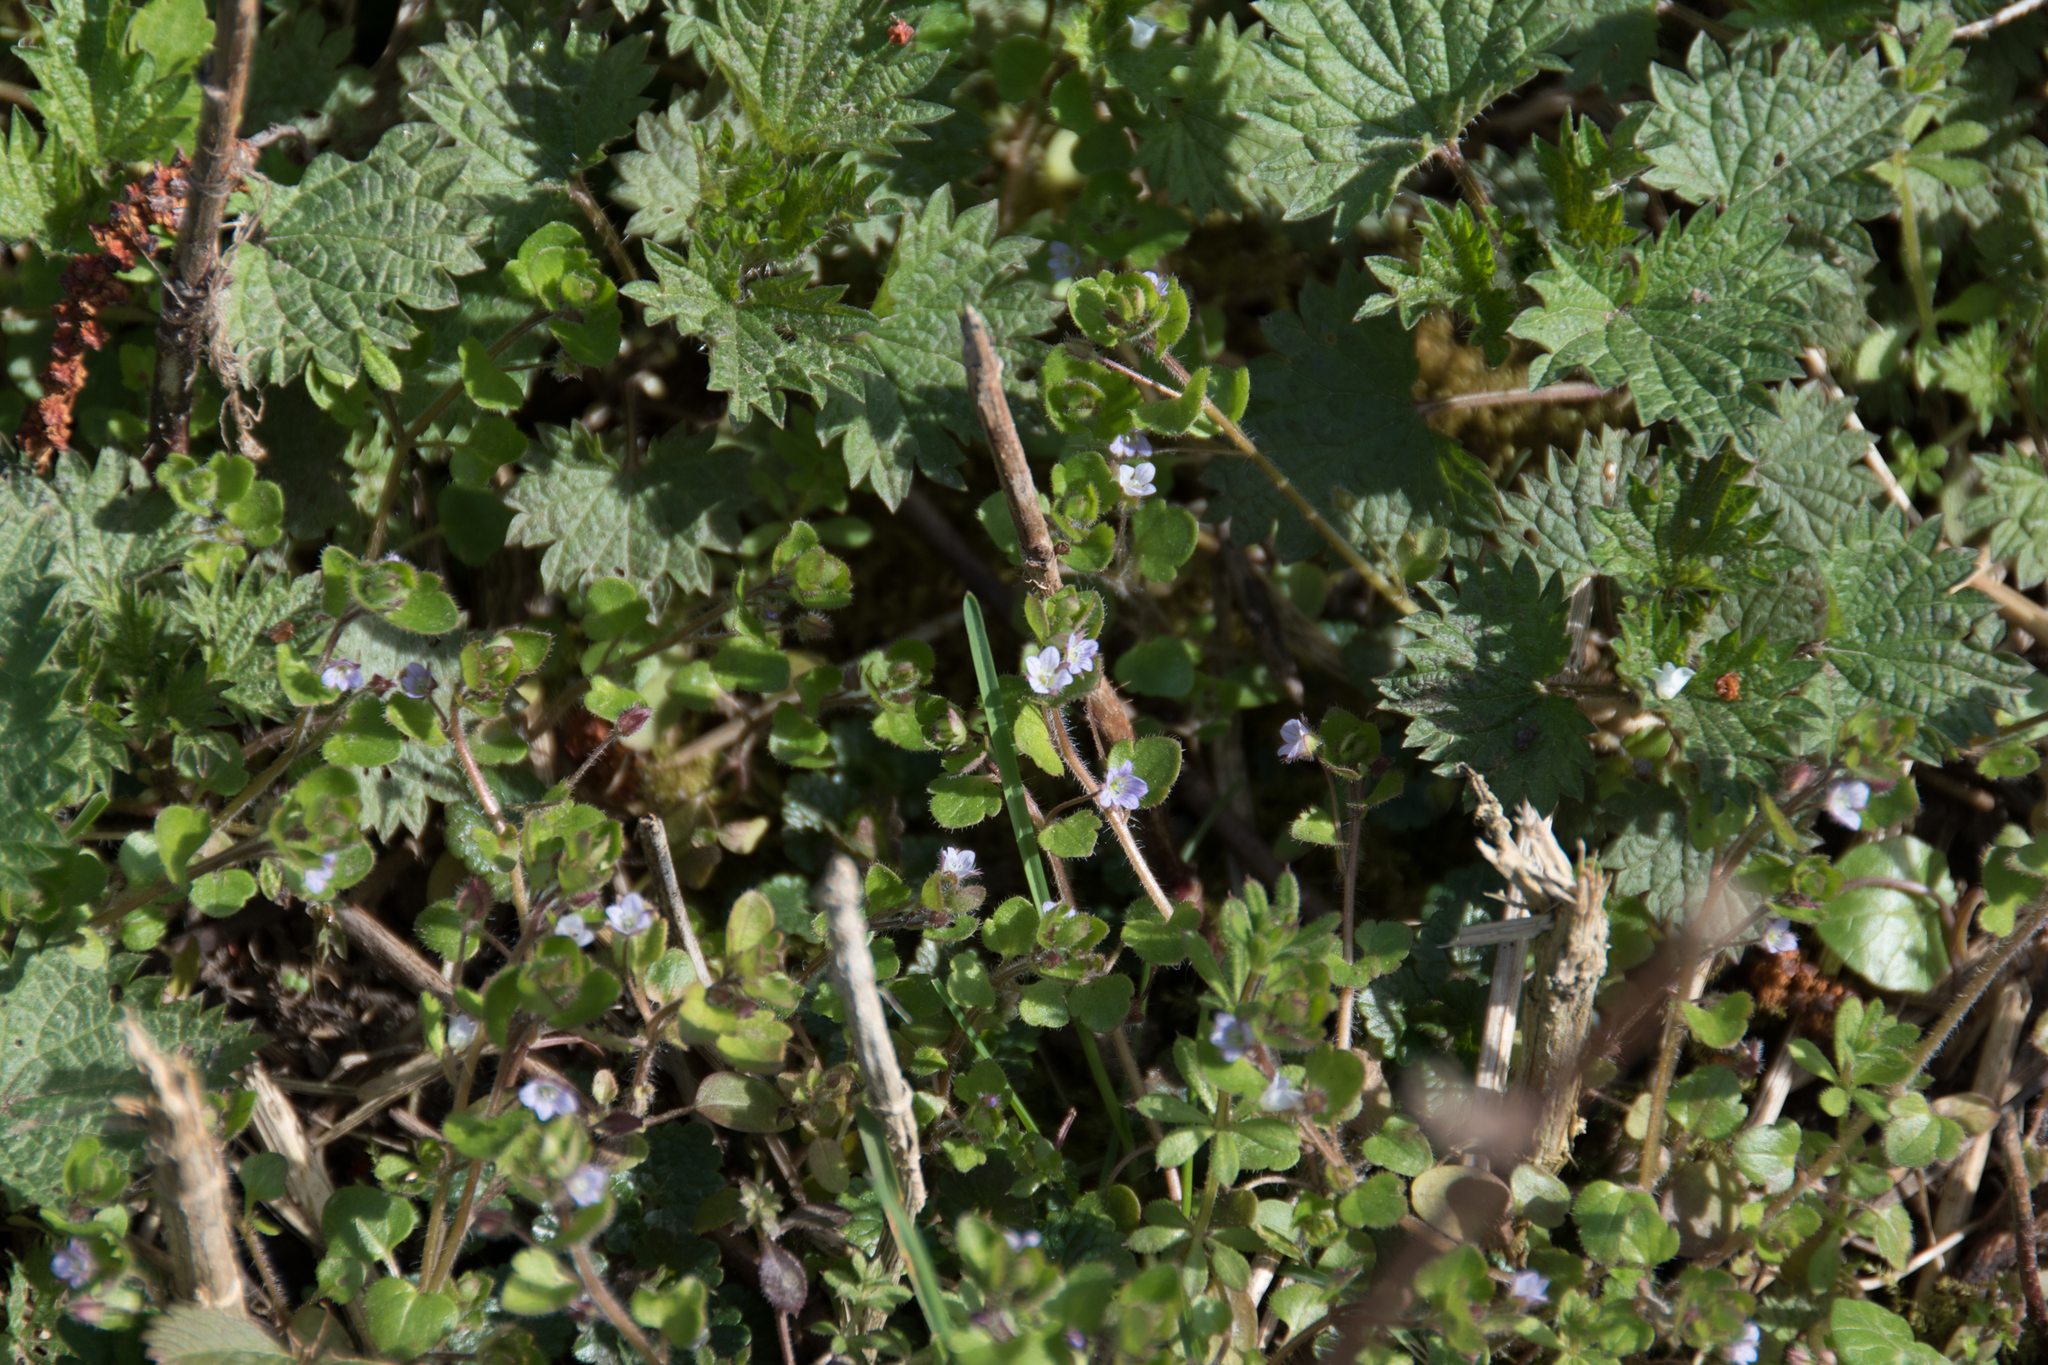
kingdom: Plantae
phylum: Tracheophyta
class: Magnoliopsida
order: Lamiales
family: Plantaginaceae
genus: Veronica
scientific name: Veronica sublobata
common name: False ivy-leaved speedwell
